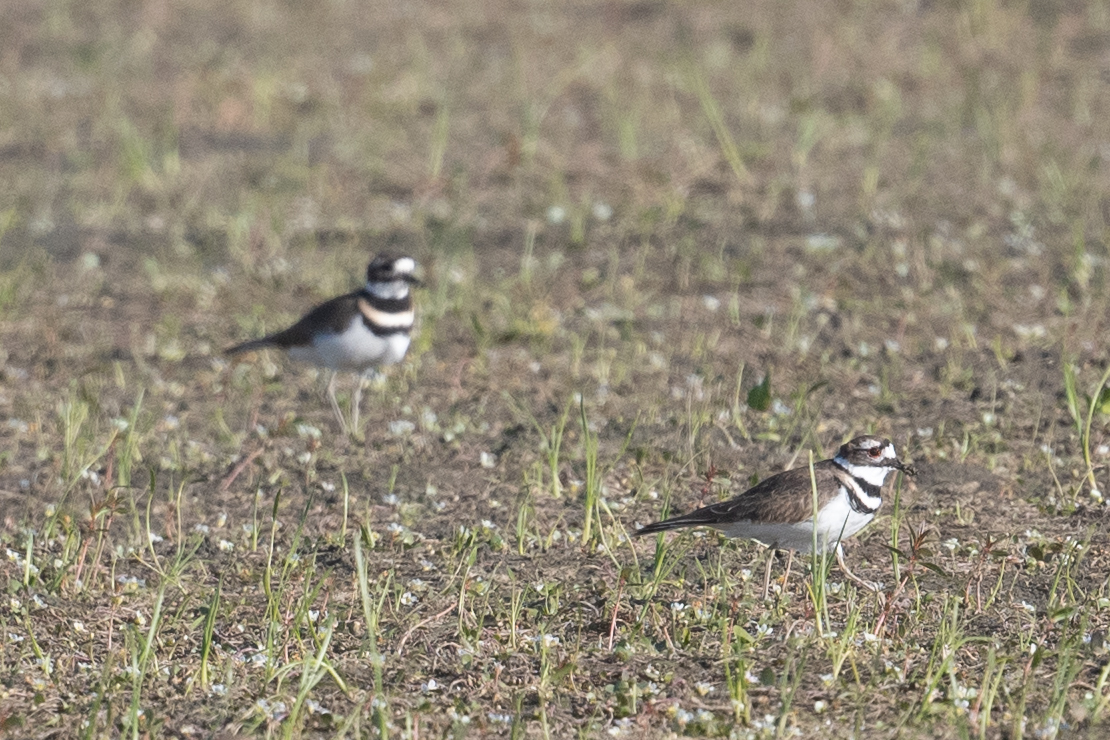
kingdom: Animalia
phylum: Chordata
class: Aves
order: Charadriiformes
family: Charadriidae
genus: Charadrius
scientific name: Charadrius vociferus
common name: Killdeer
